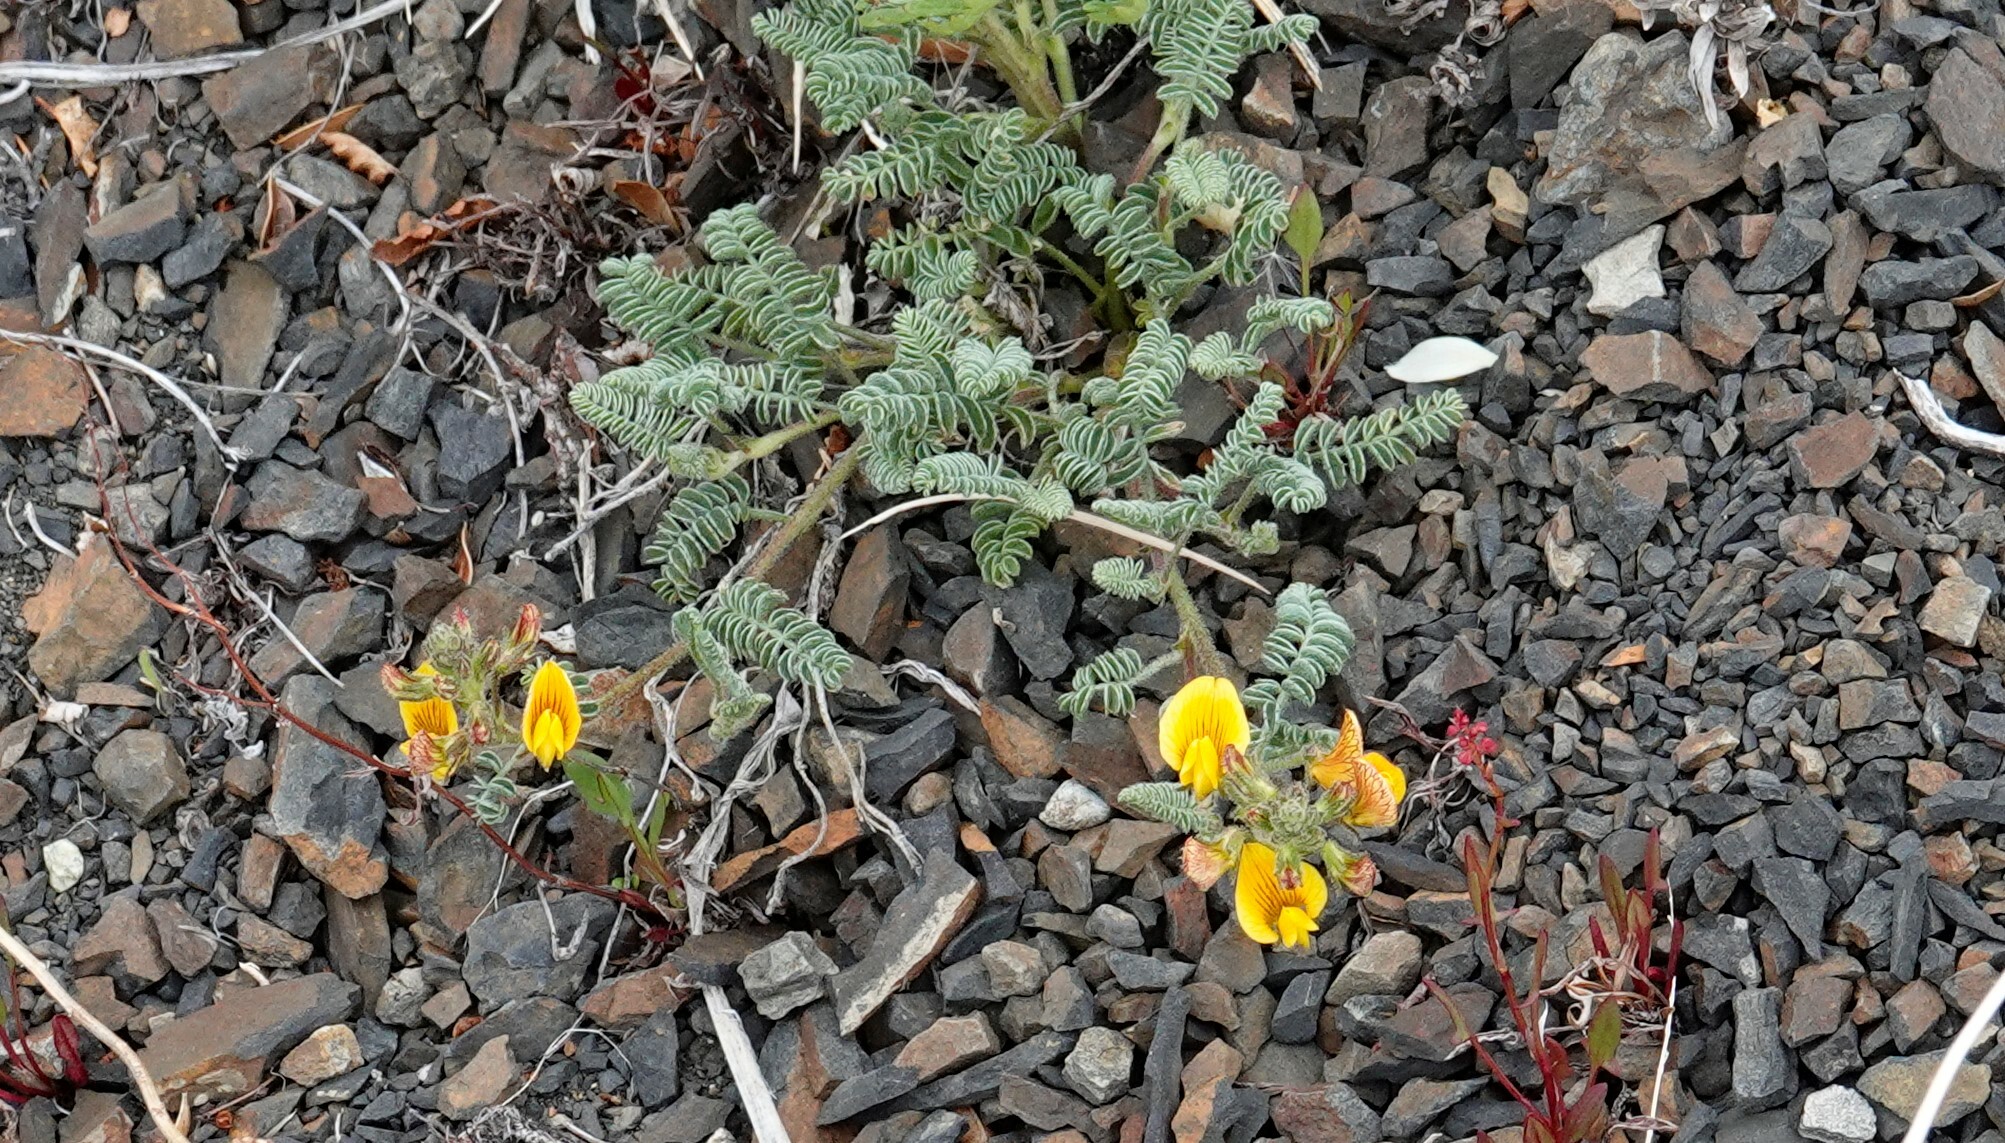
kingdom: Plantae
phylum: Tracheophyta
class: Magnoliopsida
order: Fabales
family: Fabaceae
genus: Adesmia
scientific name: Adesmia corymbosa
